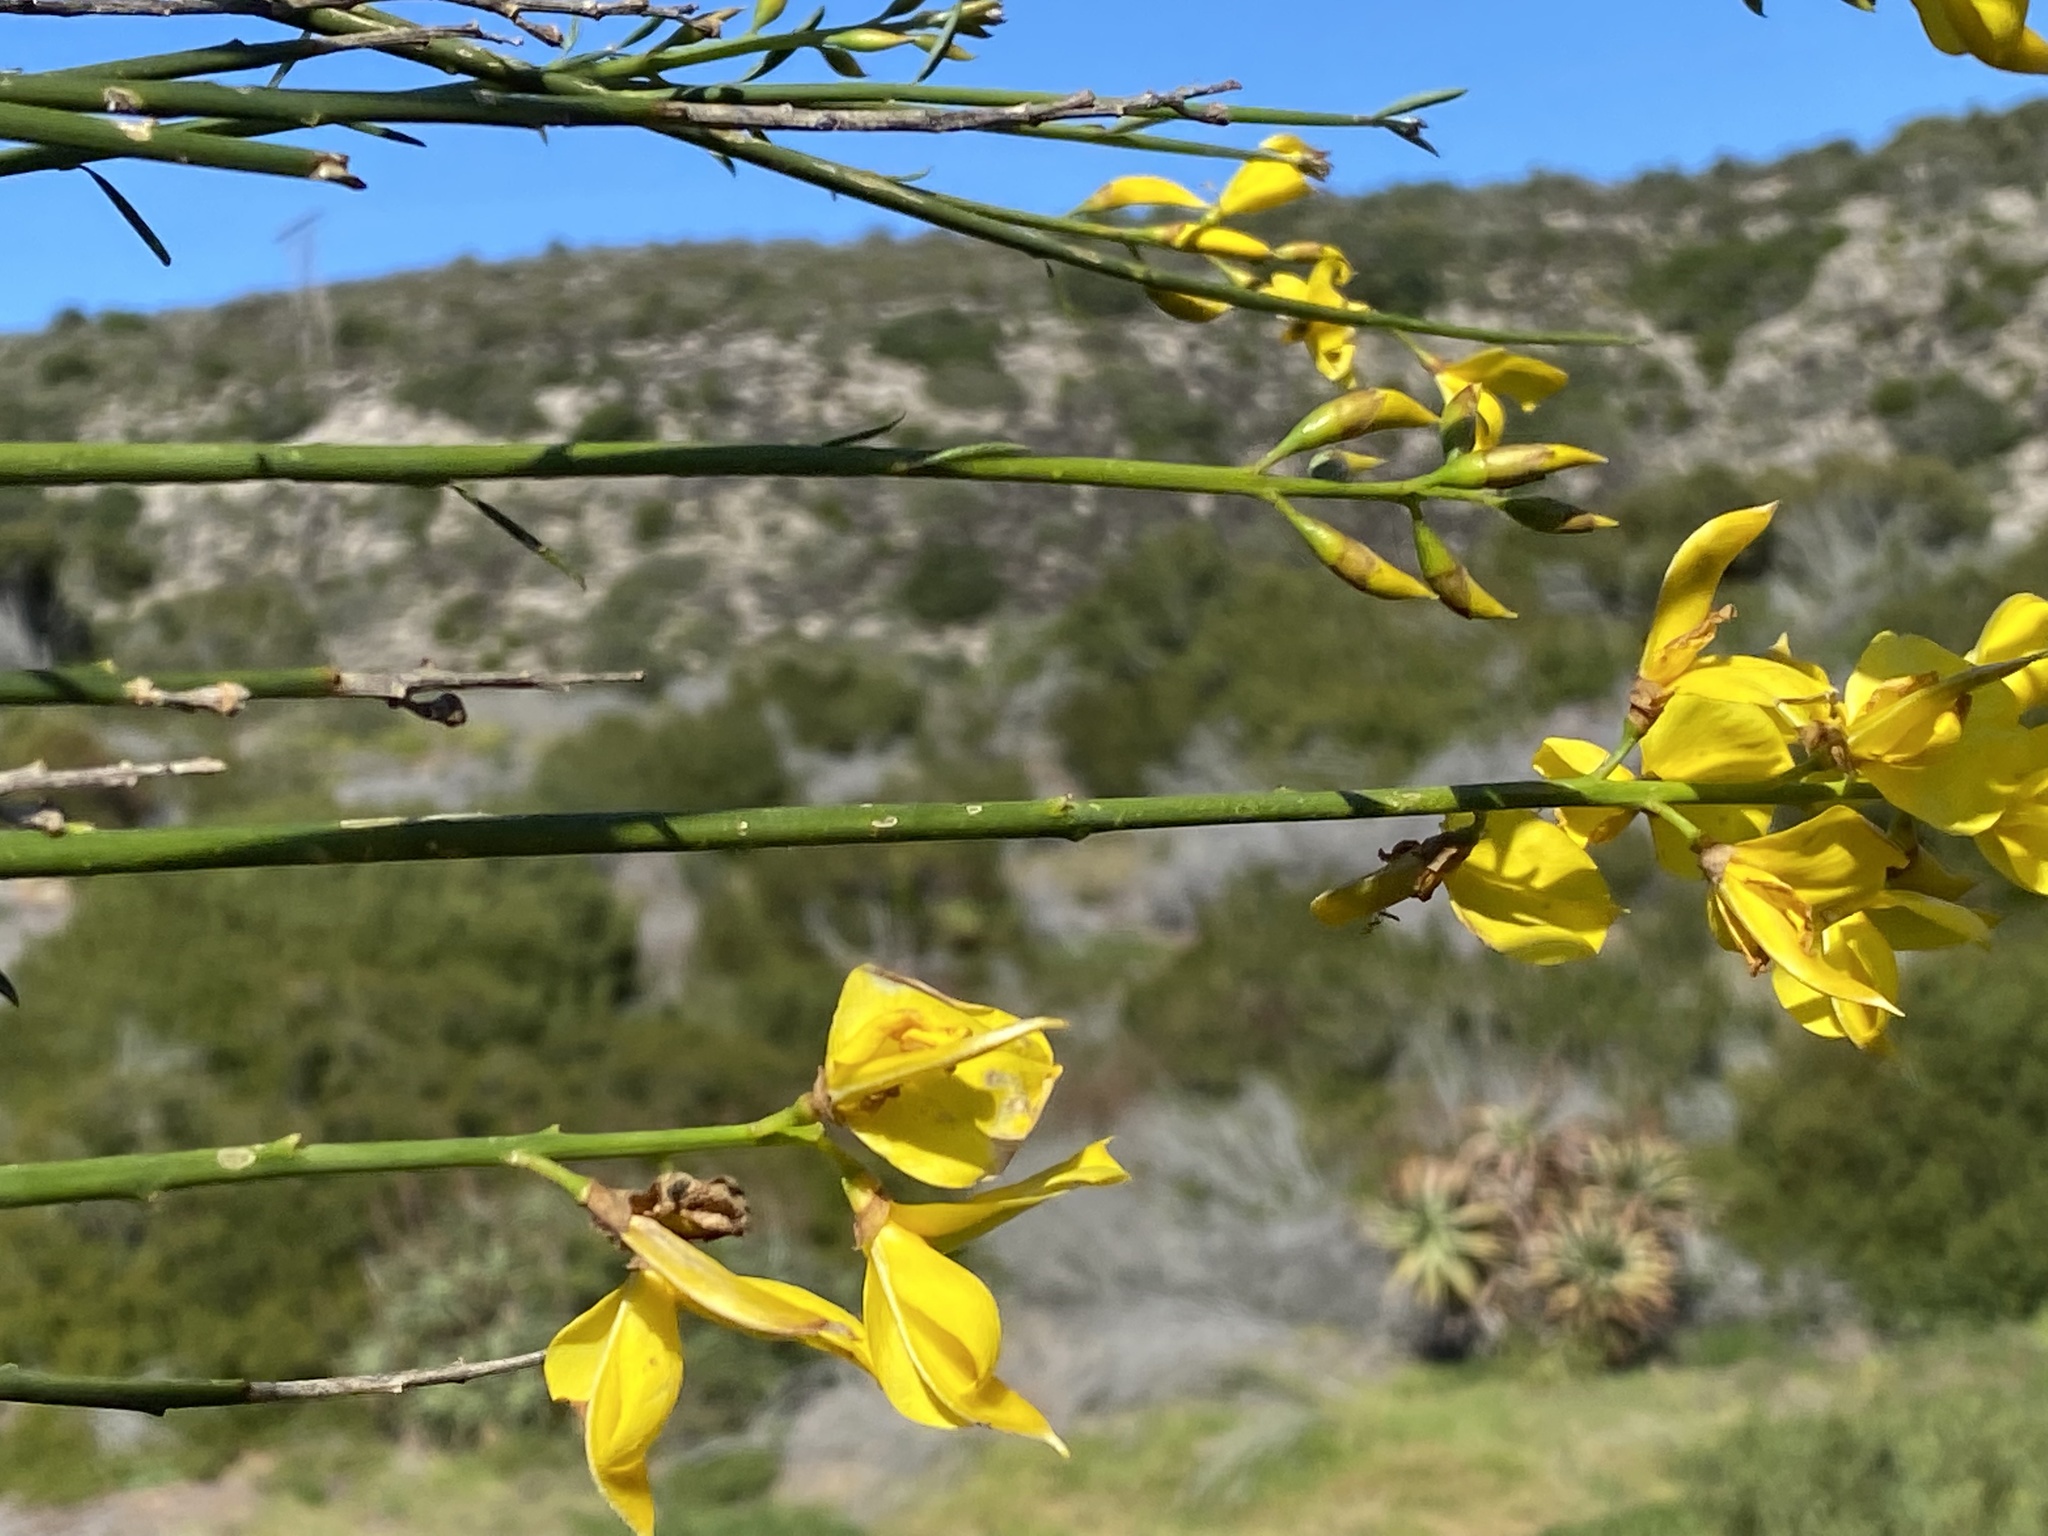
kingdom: Plantae
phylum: Tracheophyta
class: Magnoliopsida
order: Fabales
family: Fabaceae
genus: Spartium
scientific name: Spartium junceum
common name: Spanish broom
